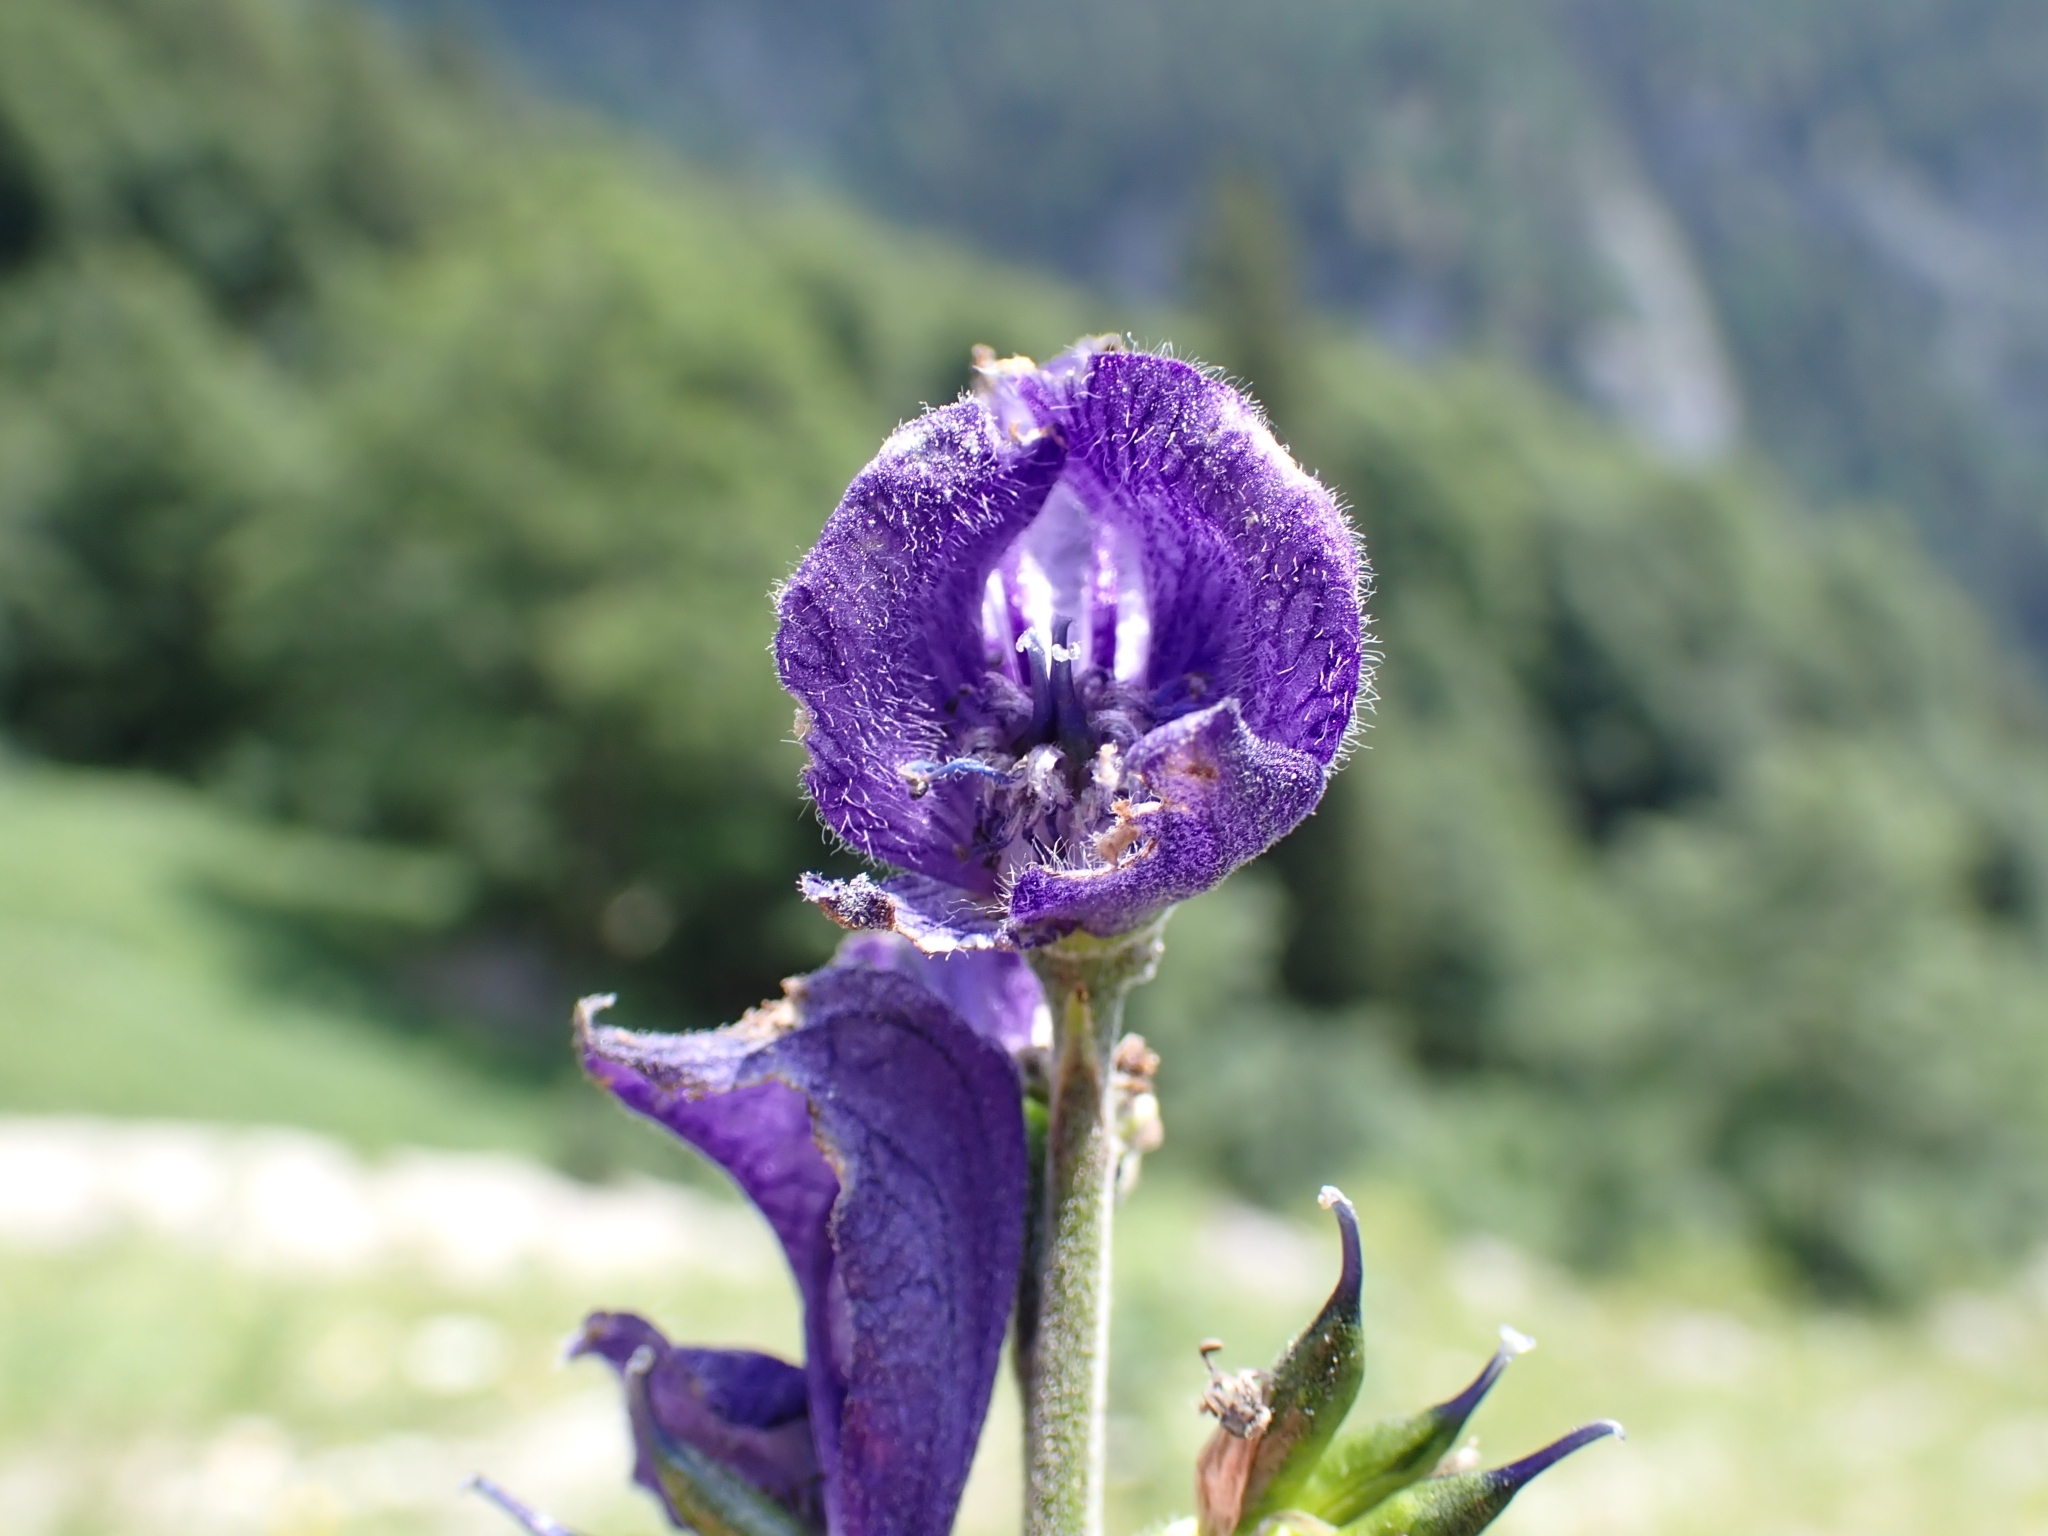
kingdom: Plantae
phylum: Tracheophyta
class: Magnoliopsida
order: Ranunculales
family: Ranunculaceae
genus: Aconitum
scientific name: Aconitum napellus
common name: Garden monkshood
